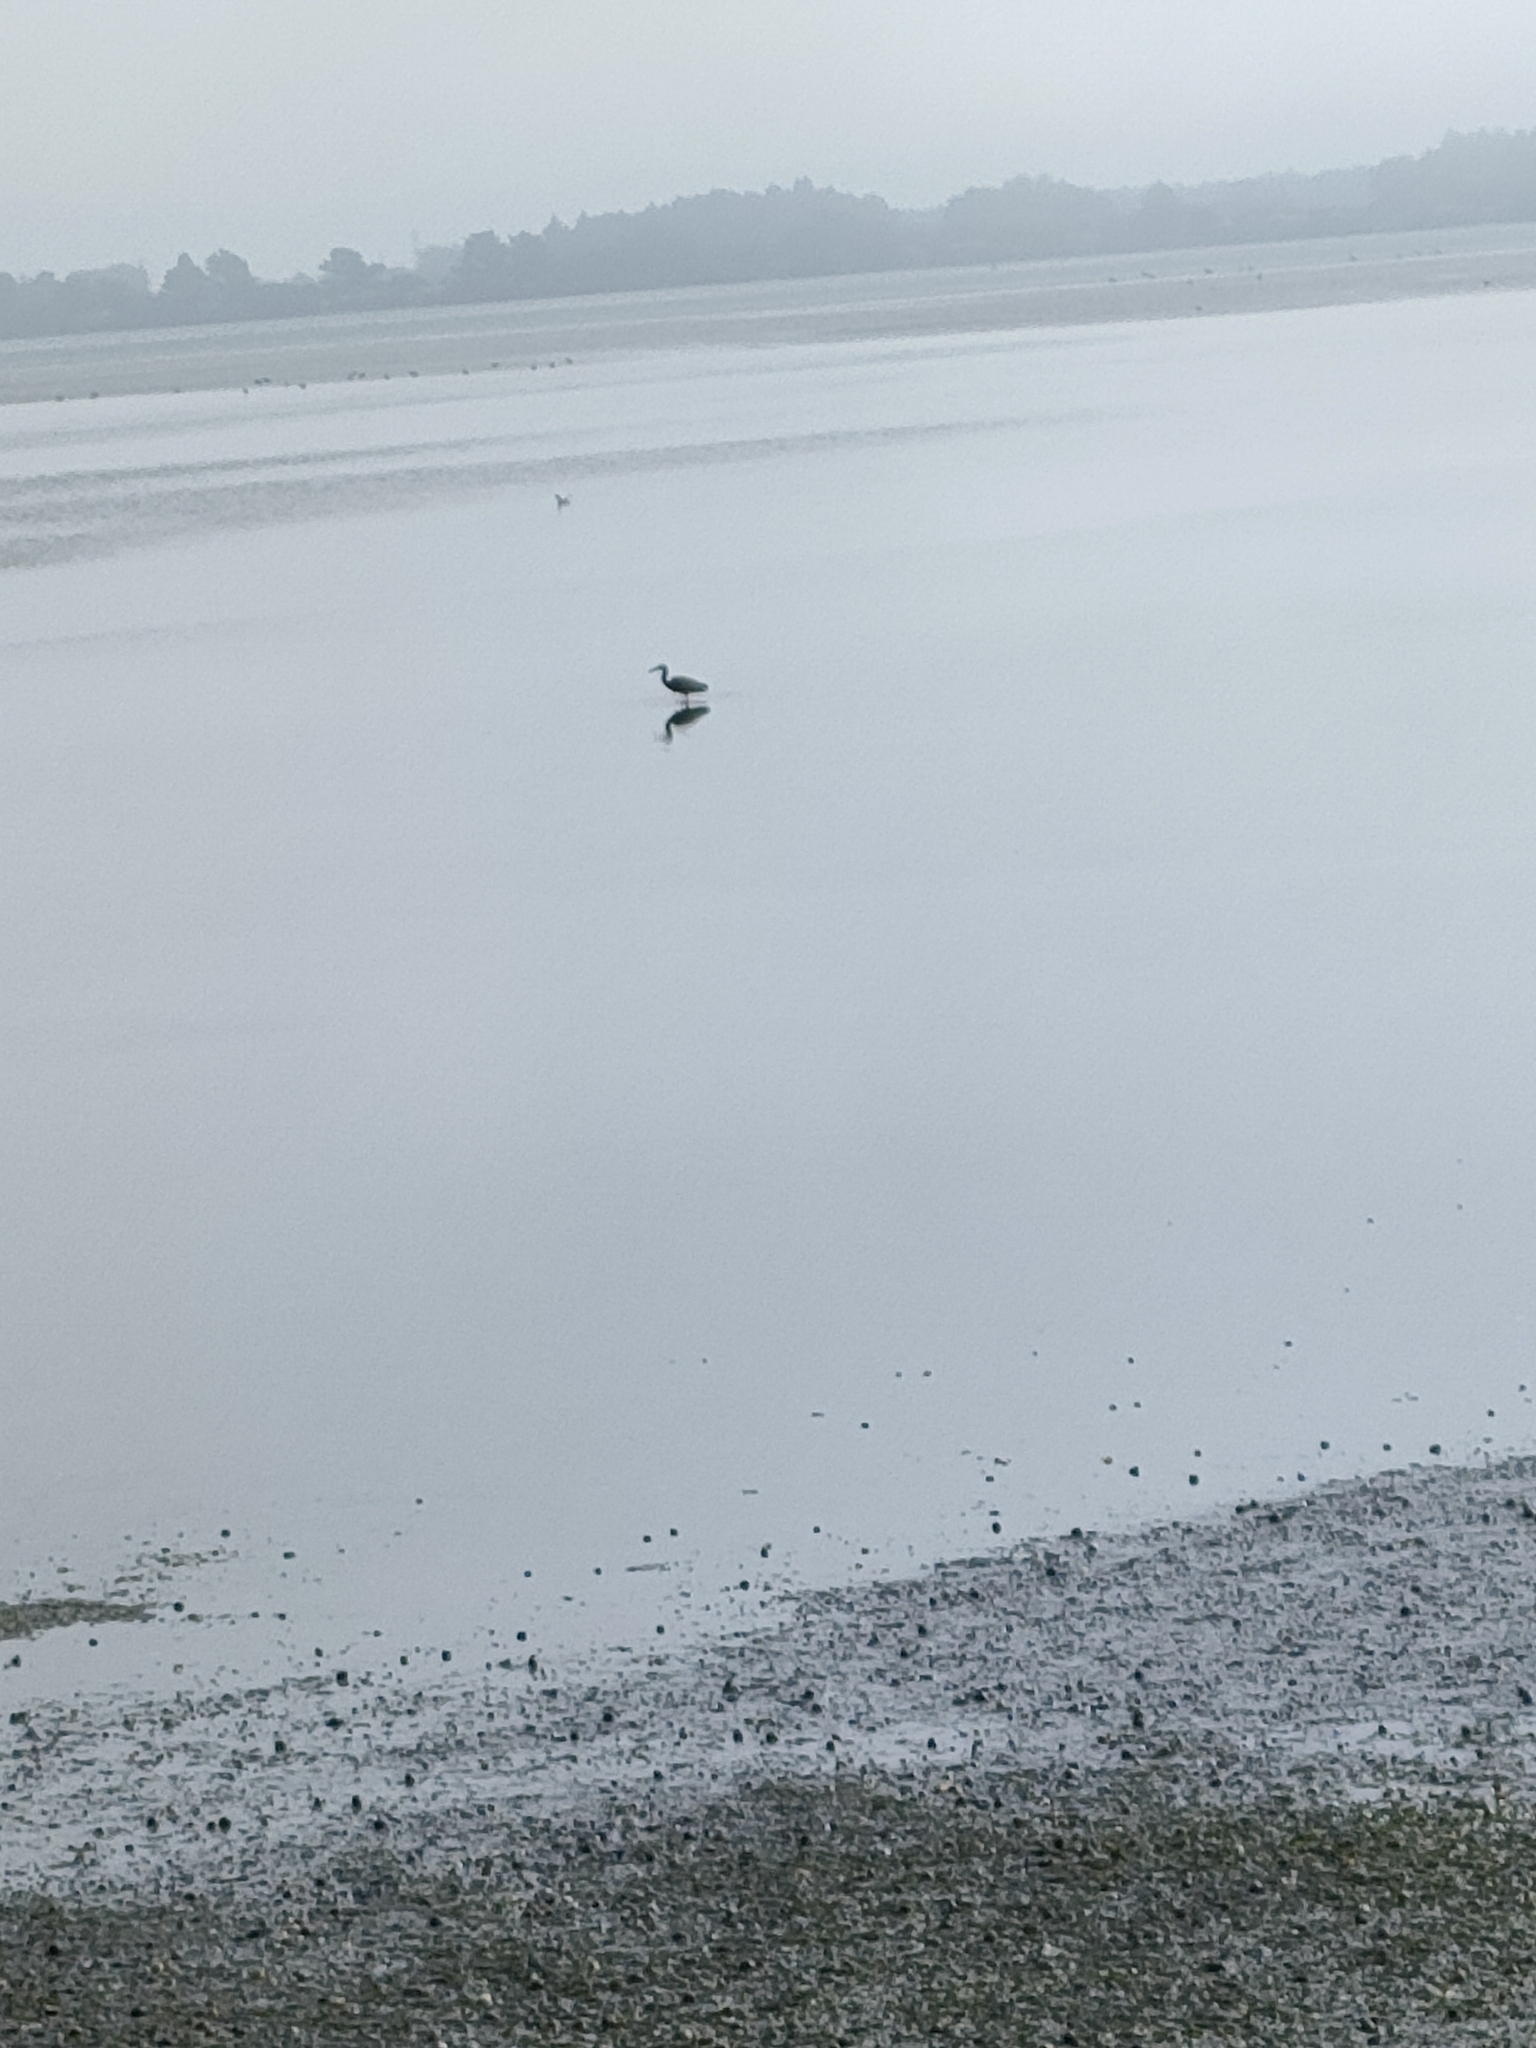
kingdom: Animalia
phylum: Chordata
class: Aves
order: Pelecaniformes
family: Ardeidae
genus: Egretta
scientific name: Egretta novaehollandiae
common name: White-faced heron
